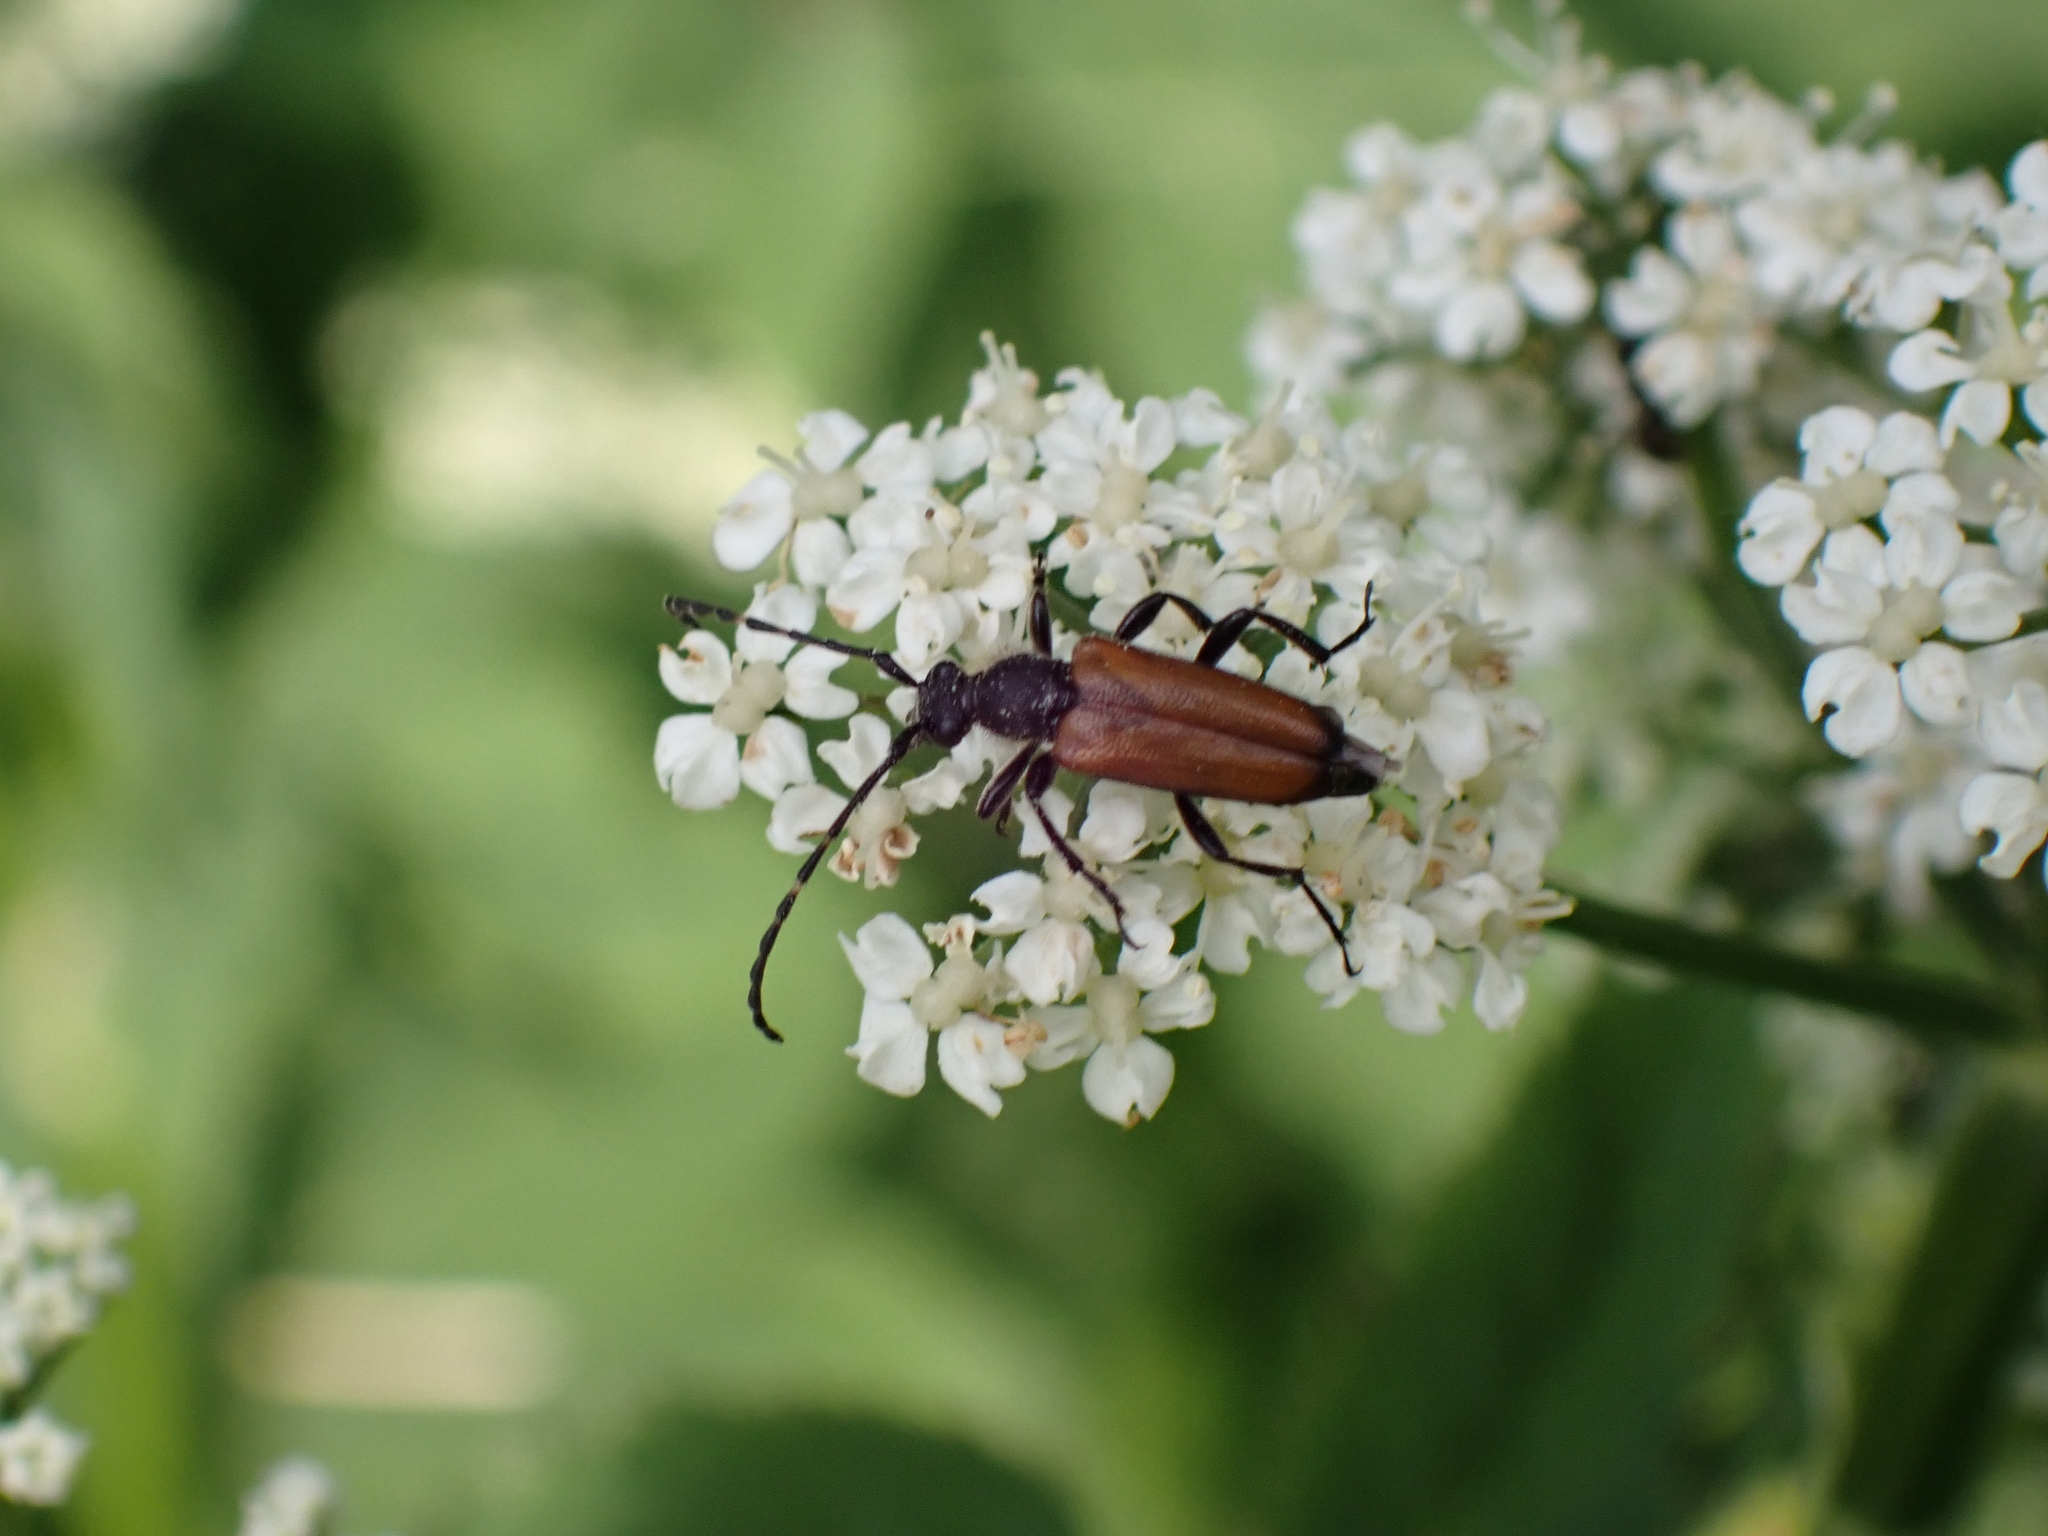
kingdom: Animalia
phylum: Arthropoda
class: Insecta
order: Coleoptera
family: Cerambycidae
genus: Paracorymbia
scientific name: Paracorymbia maculicornis
